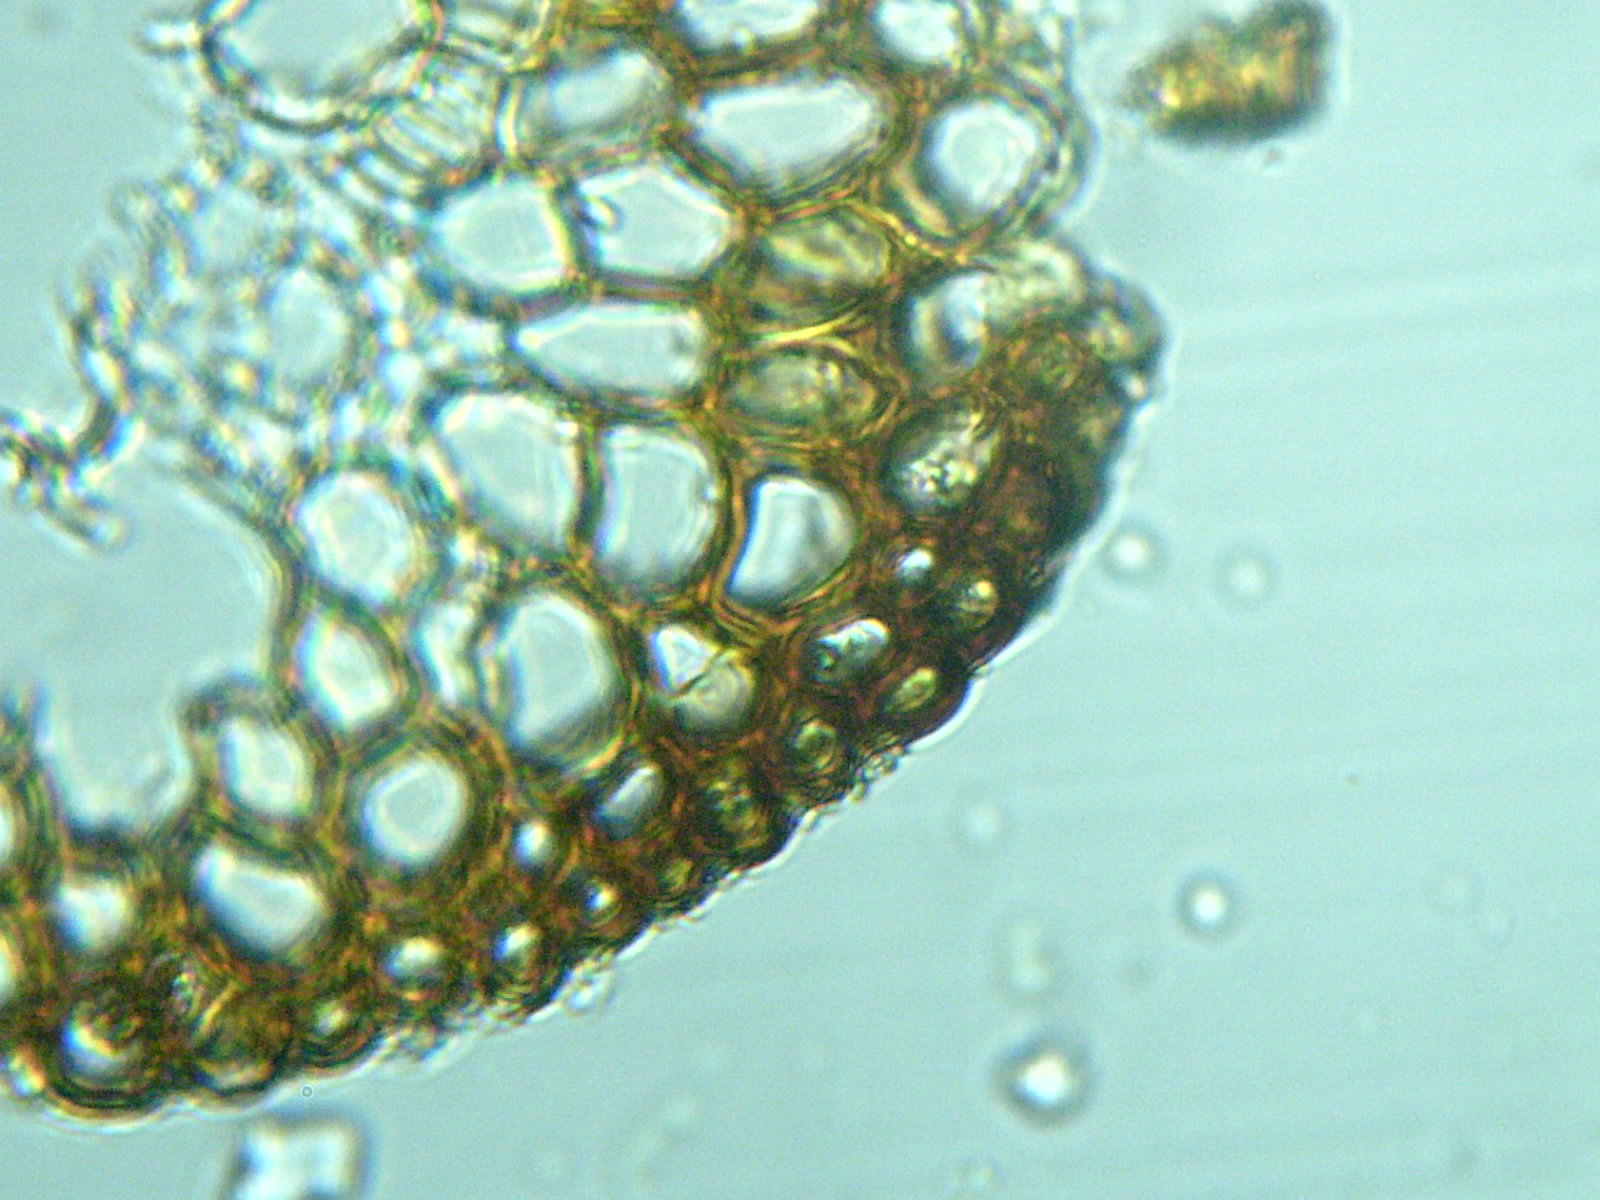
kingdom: Plantae
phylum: Bryophyta
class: Bryopsida
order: Dicranales
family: Dicranellaceae
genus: Dicranella
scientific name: Dicranella heteromalla
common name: Silky forklet moss
